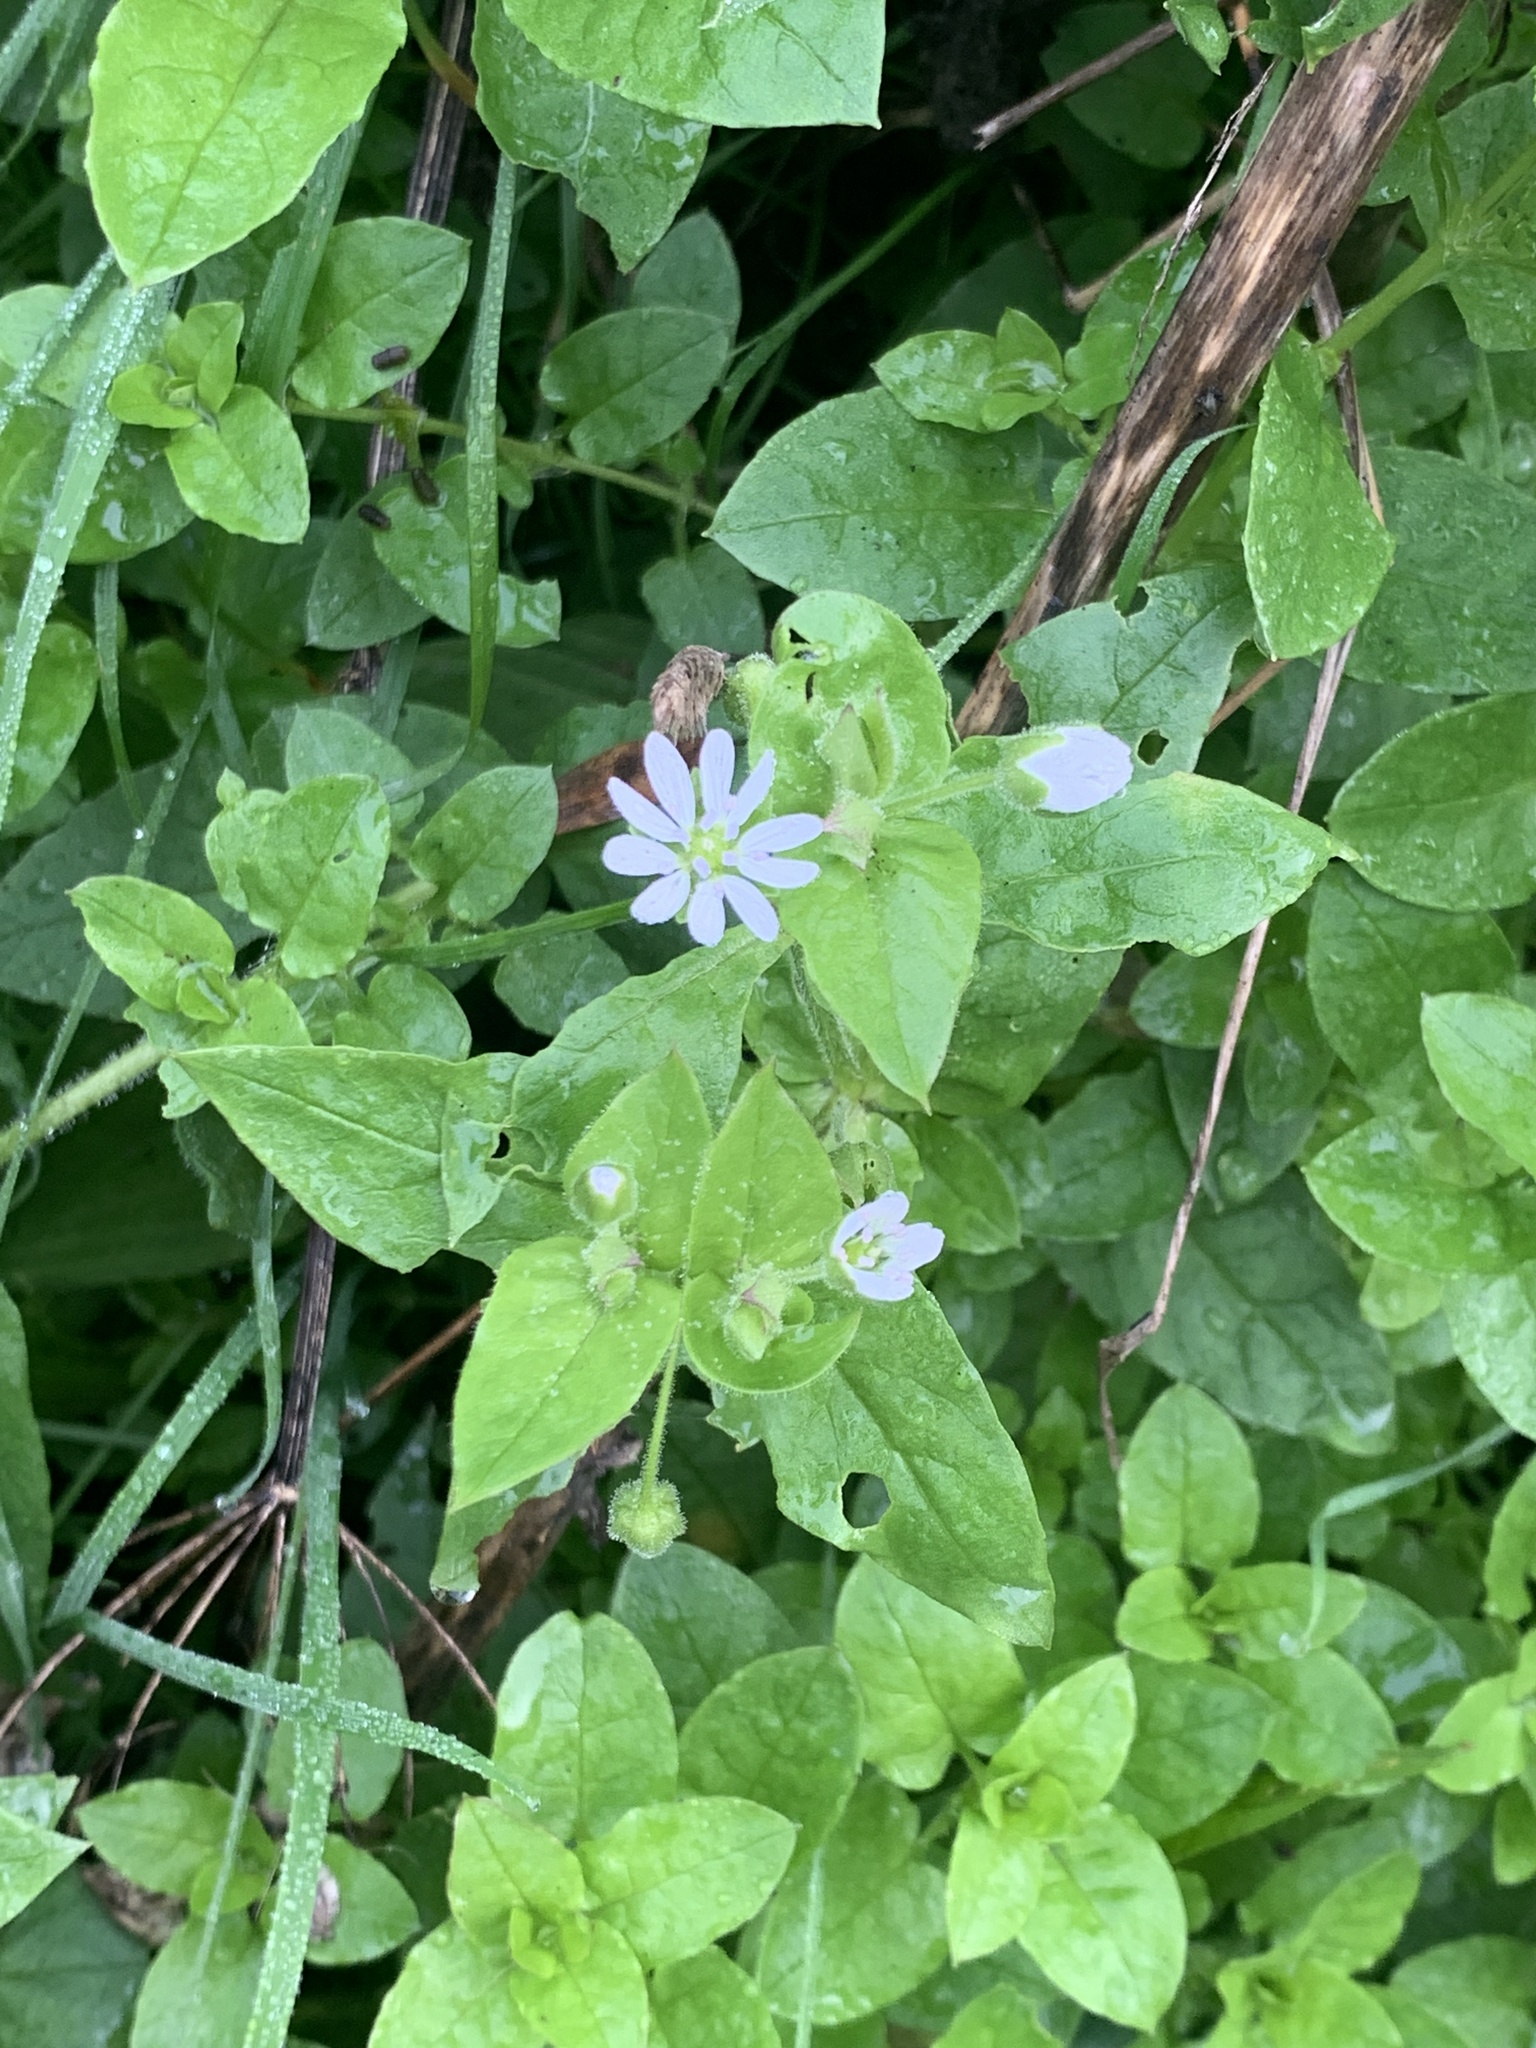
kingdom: Plantae
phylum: Tracheophyta
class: Magnoliopsida
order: Caryophyllales
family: Caryophyllaceae
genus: Stellaria
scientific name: Stellaria aquatica
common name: Water chickweed
